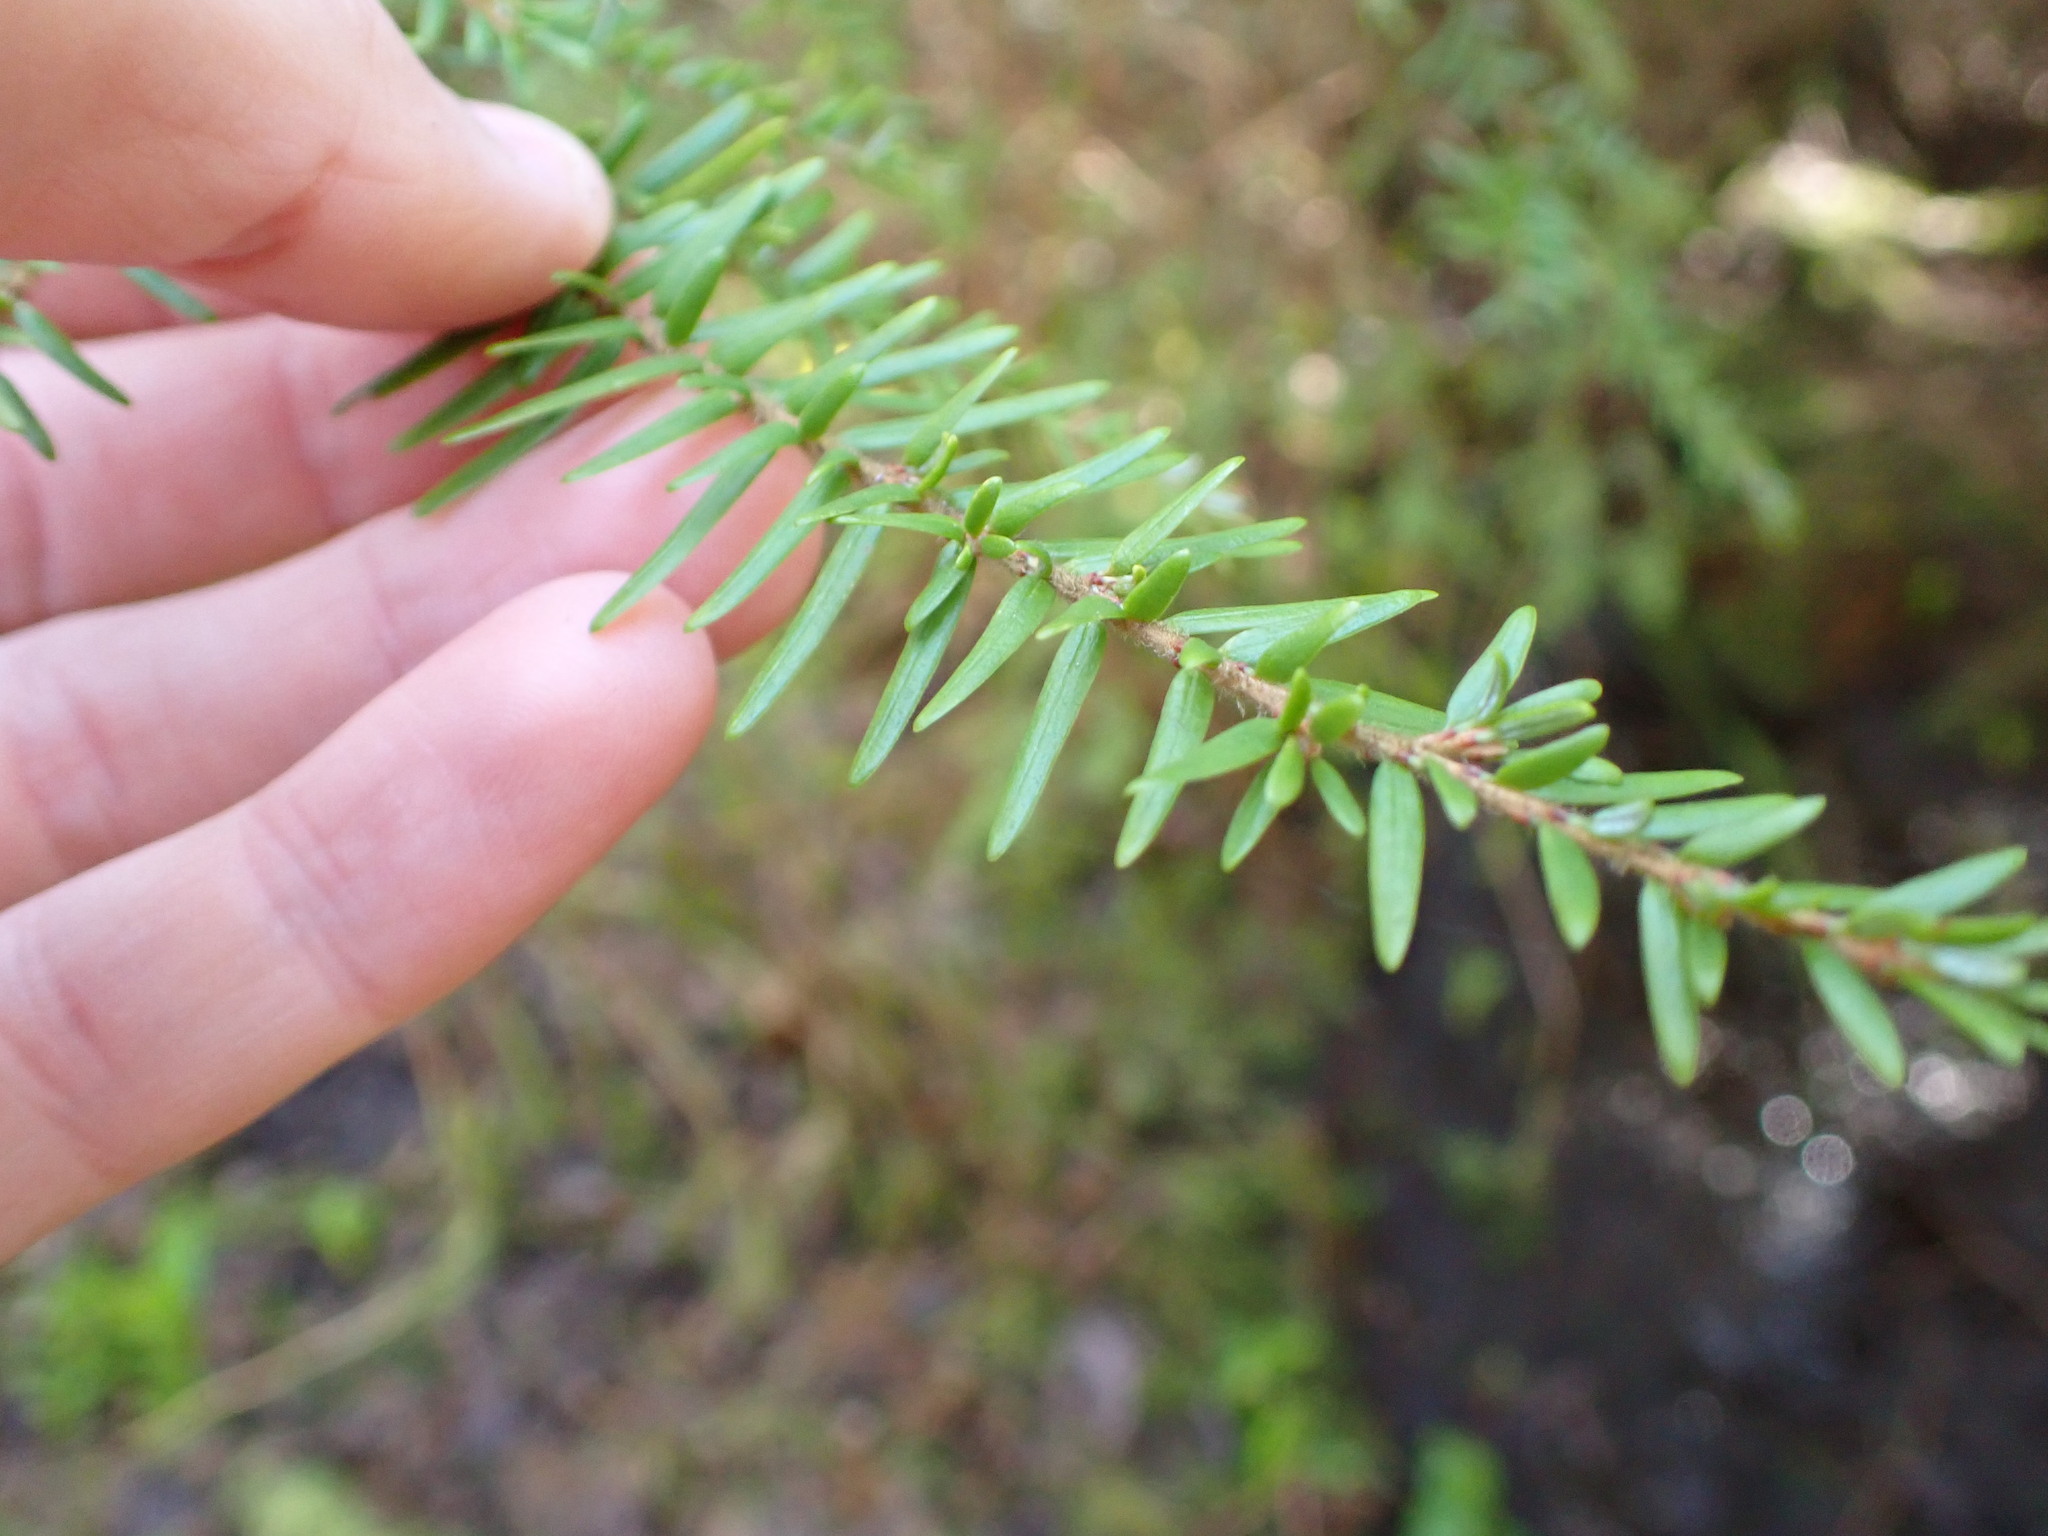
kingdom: Plantae
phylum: Tracheophyta
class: Pinopsida
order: Pinales
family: Pinaceae
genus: Tsuga
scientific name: Tsuga heterophylla
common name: Western hemlock
